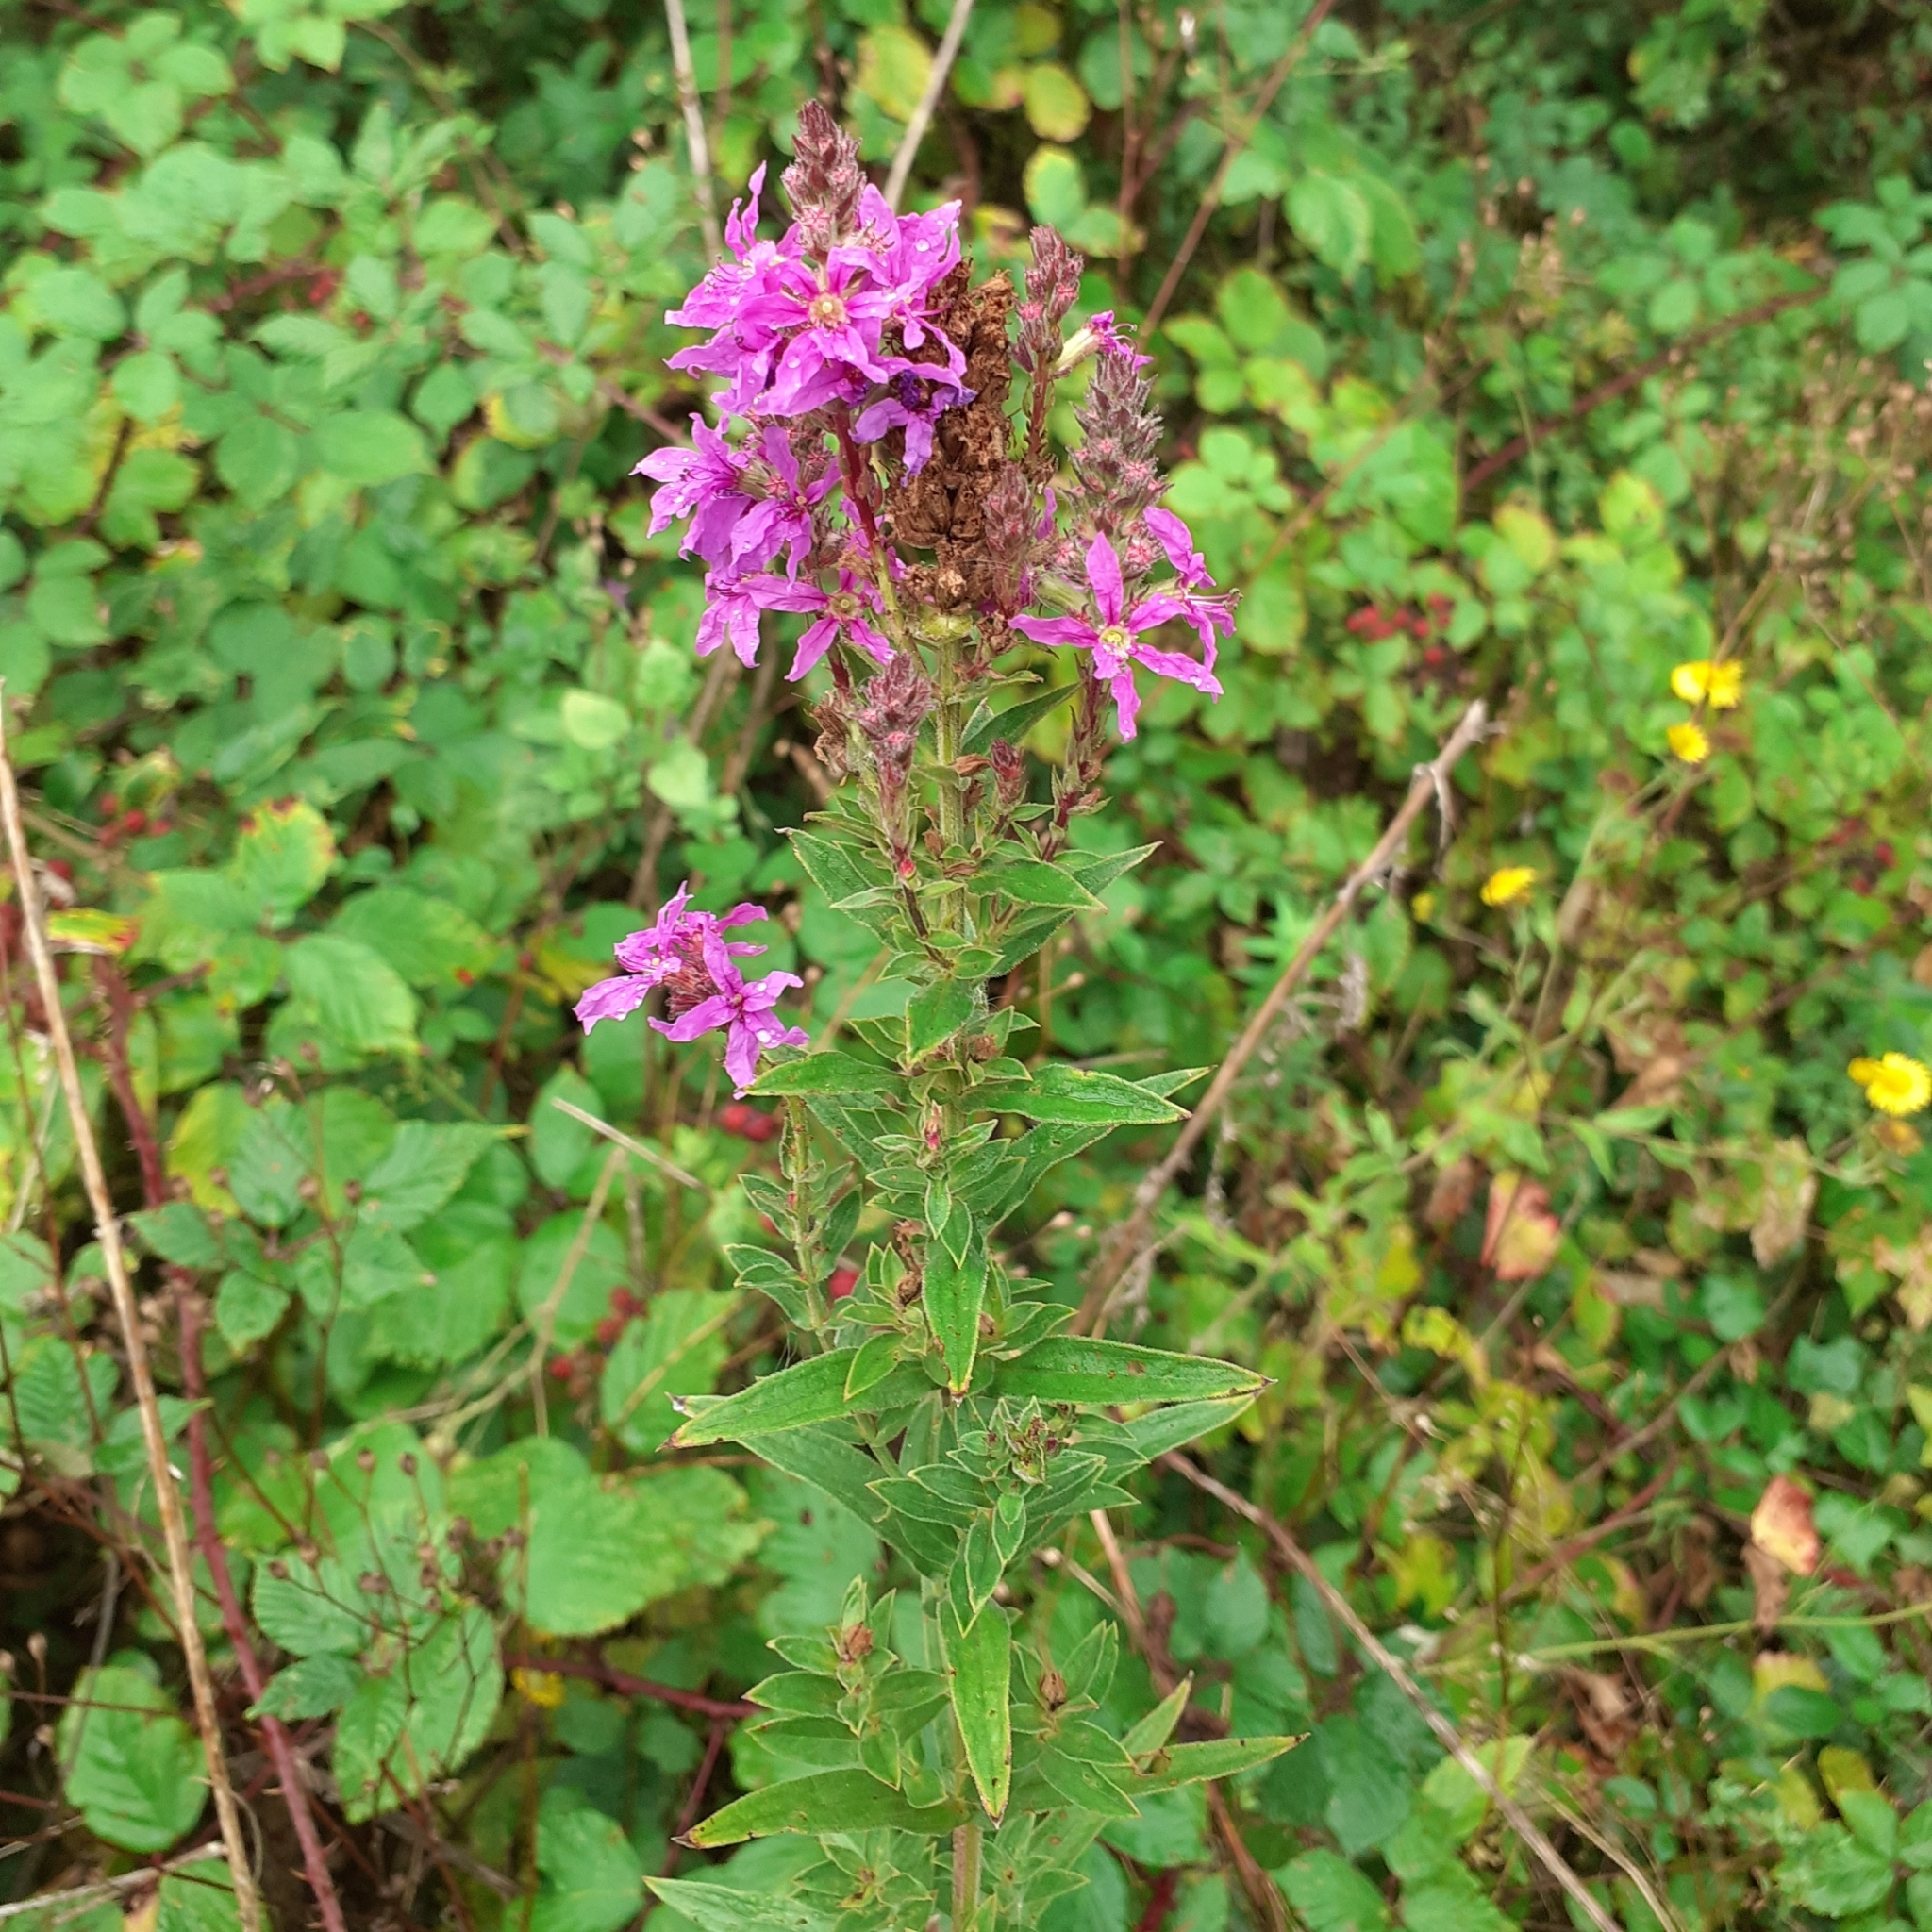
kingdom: Plantae
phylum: Tracheophyta
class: Magnoliopsida
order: Myrtales
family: Lythraceae
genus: Lythrum
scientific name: Lythrum salicaria
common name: Purple loosestrife
